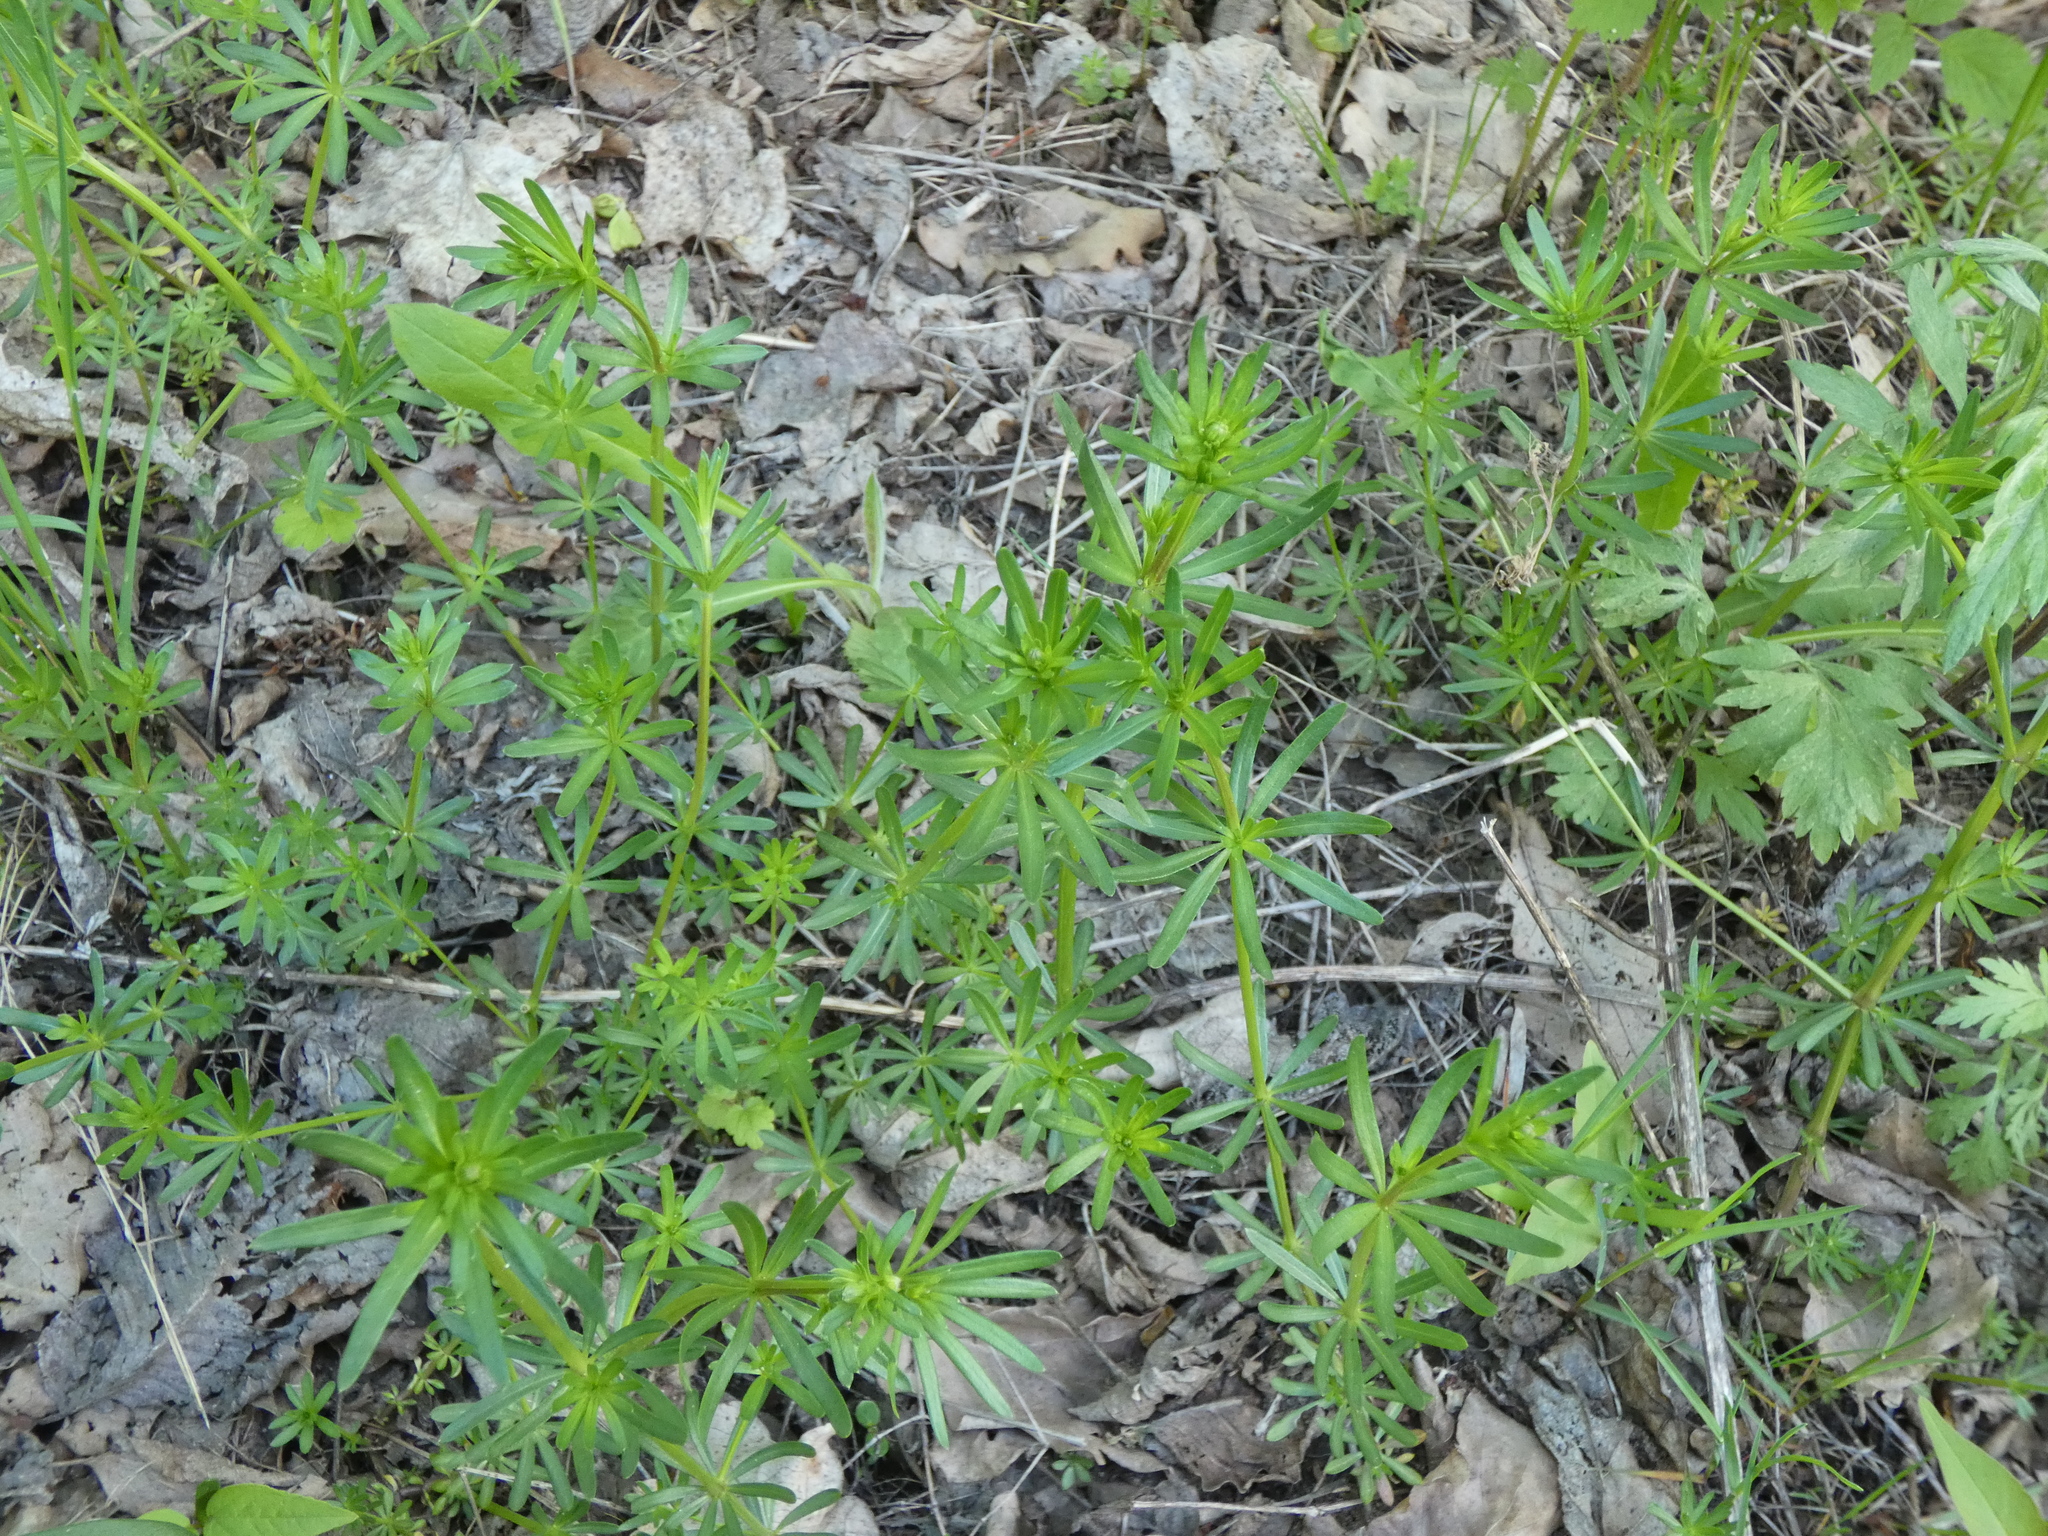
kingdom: Plantae
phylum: Tracheophyta
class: Magnoliopsida
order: Gentianales
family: Rubiaceae
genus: Galium
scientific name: Galium mollugo
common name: Hedge bedstraw
